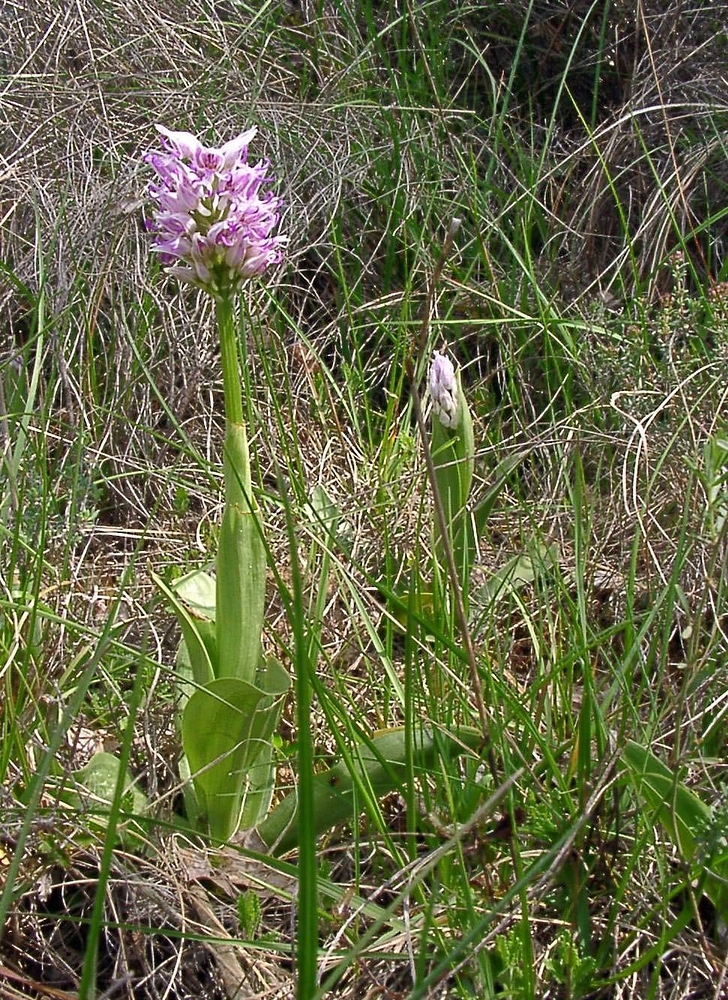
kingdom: Plantae
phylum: Tracheophyta
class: Liliopsida
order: Asparagales
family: Orchidaceae
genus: Orchis
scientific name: Orchis simia
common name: Monkey orchid
